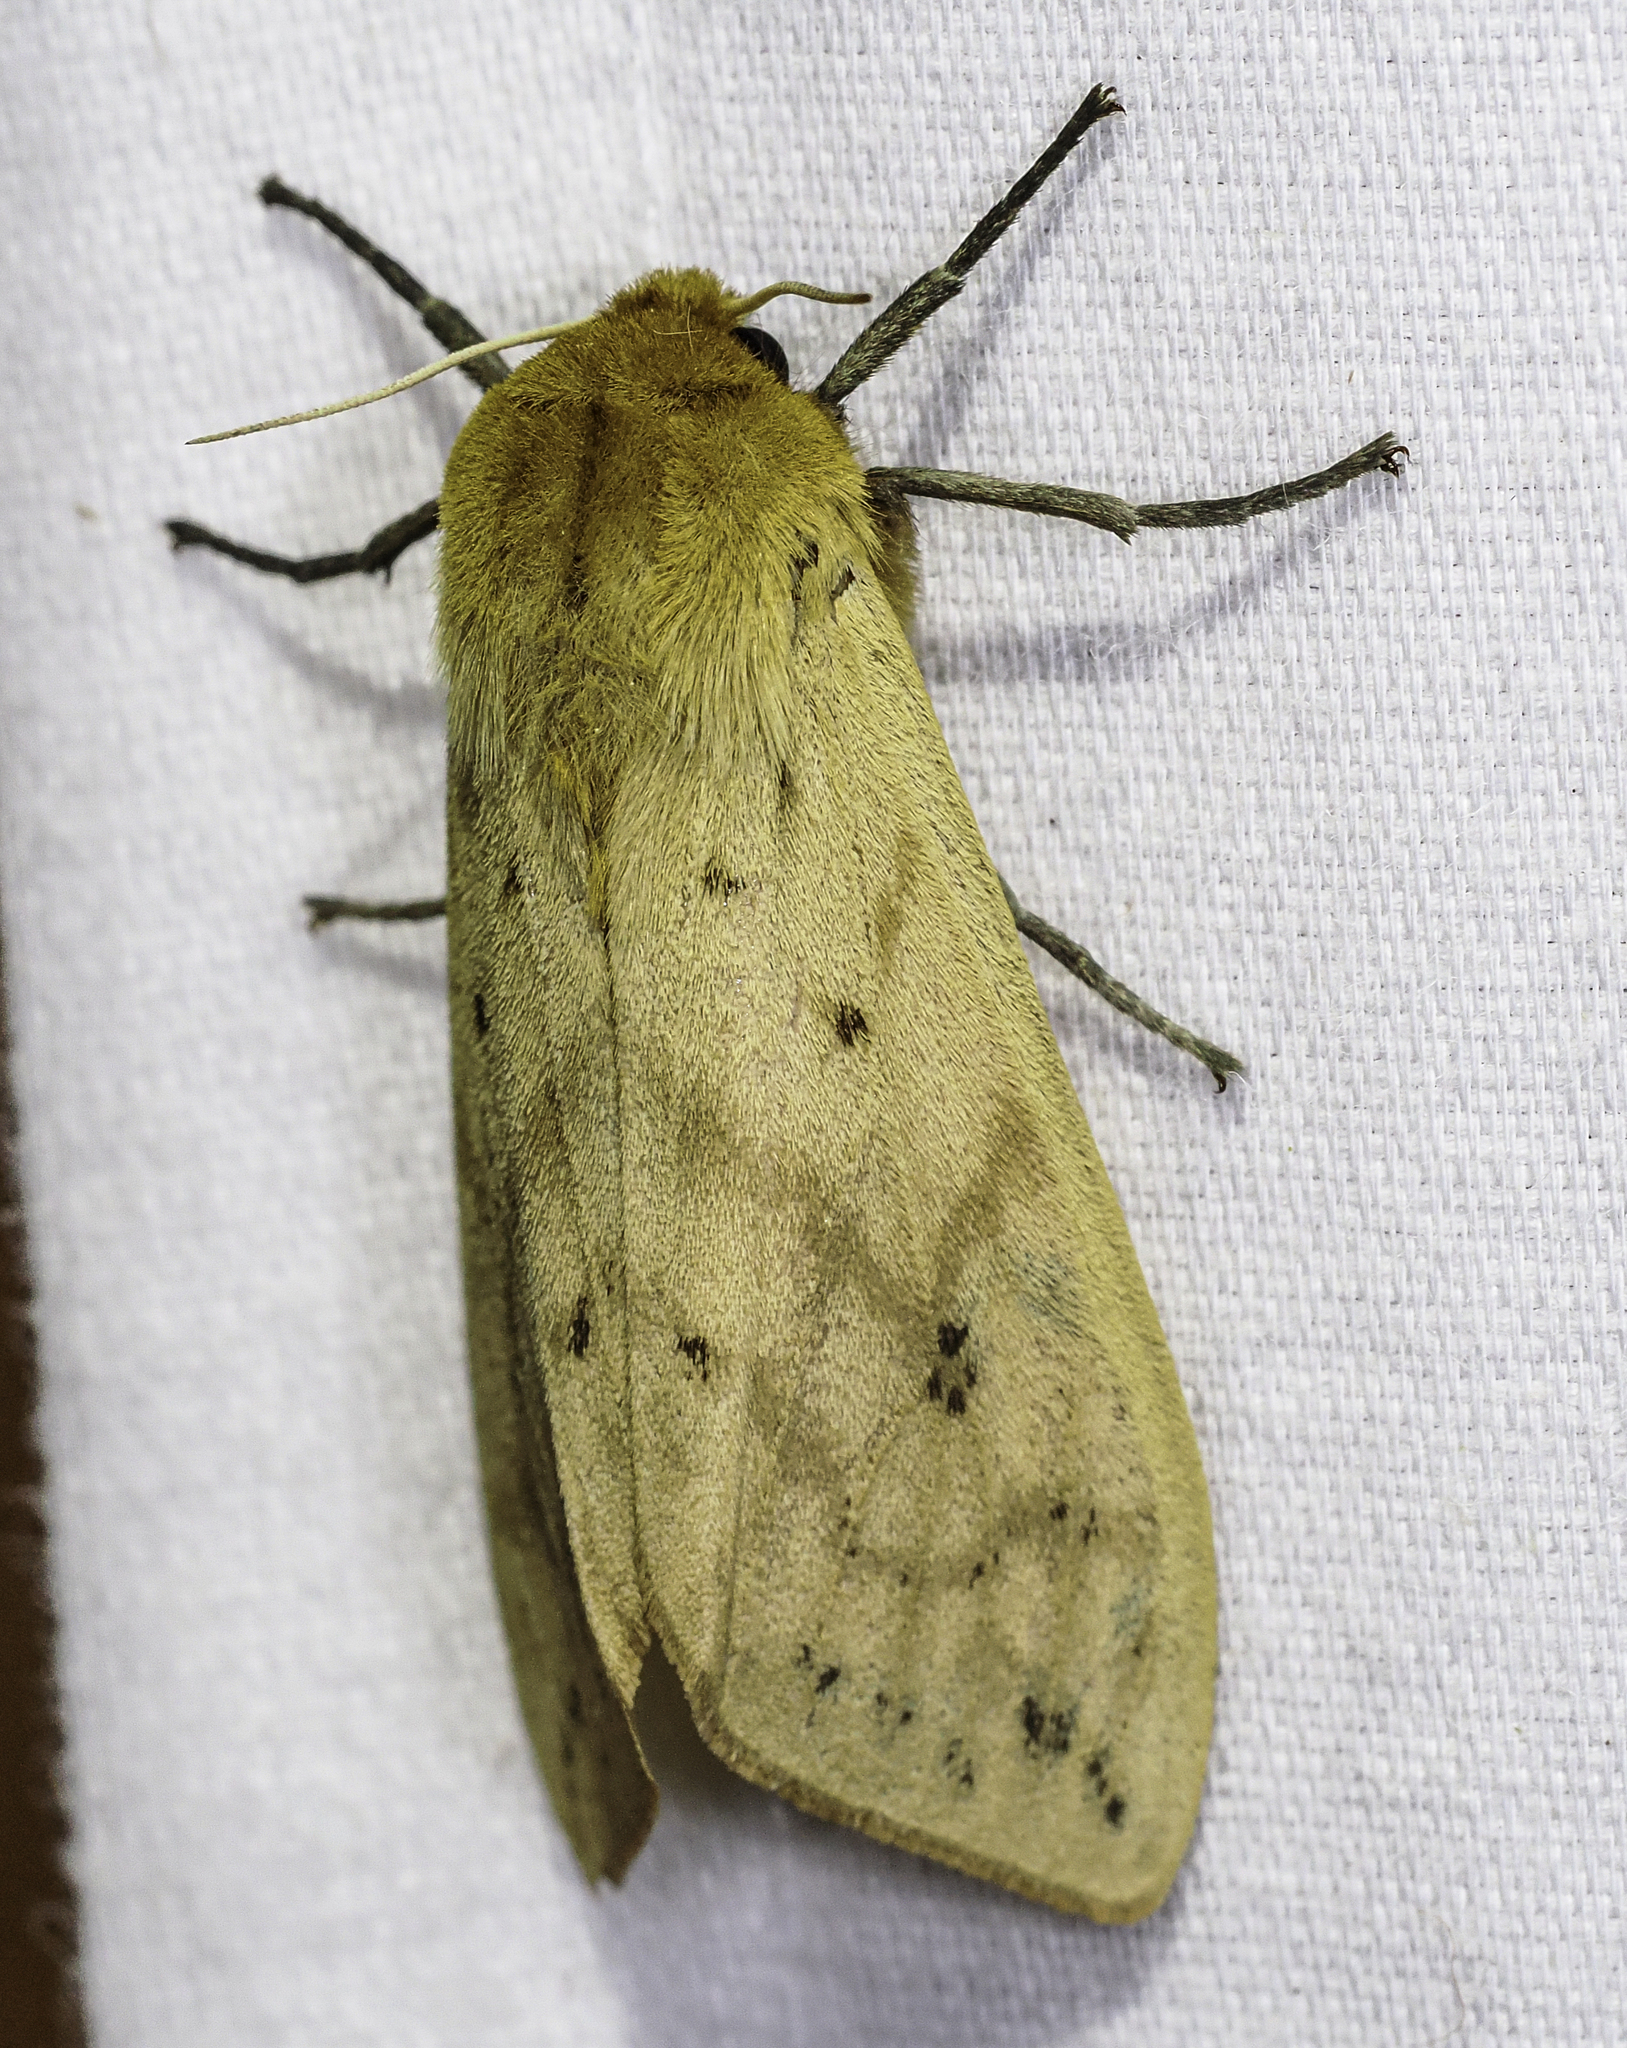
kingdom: Animalia
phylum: Arthropoda
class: Insecta
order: Lepidoptera
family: Erebidae
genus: Pyrrharctia
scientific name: Pyrrharctia isabella
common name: Isabella tiger moth
